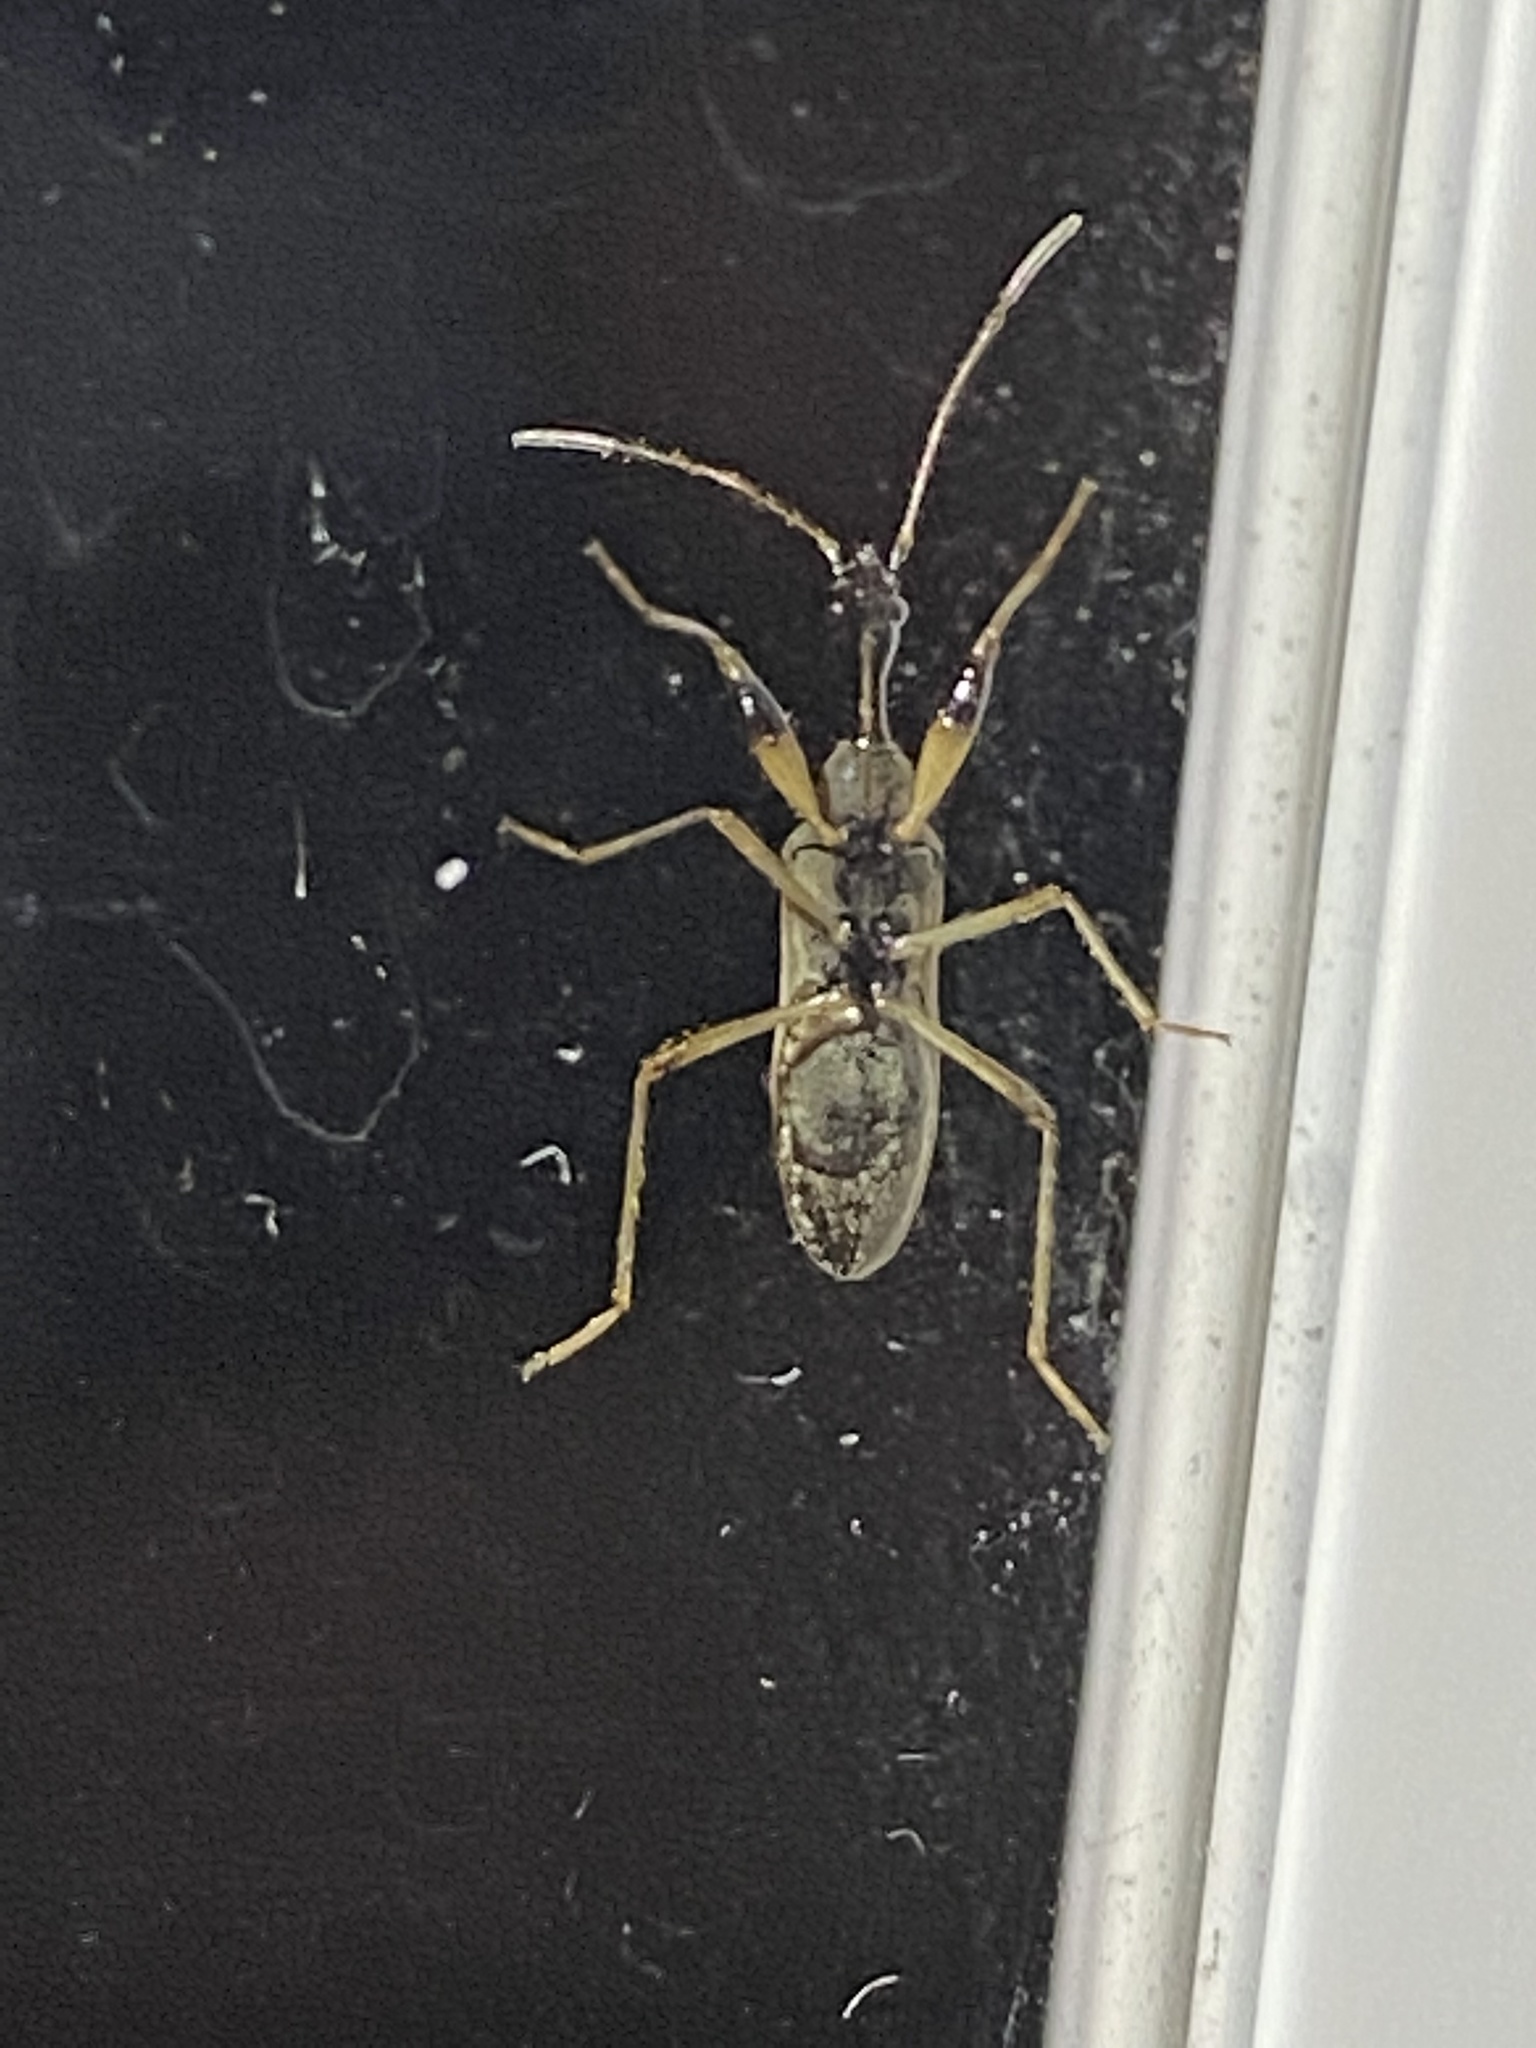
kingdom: Animalia
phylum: Arthropoda
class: Insecta
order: Hemiptera
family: Rhyparochromidae
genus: Myodocha
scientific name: Myodocha serripes
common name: Long-necked seed bug
